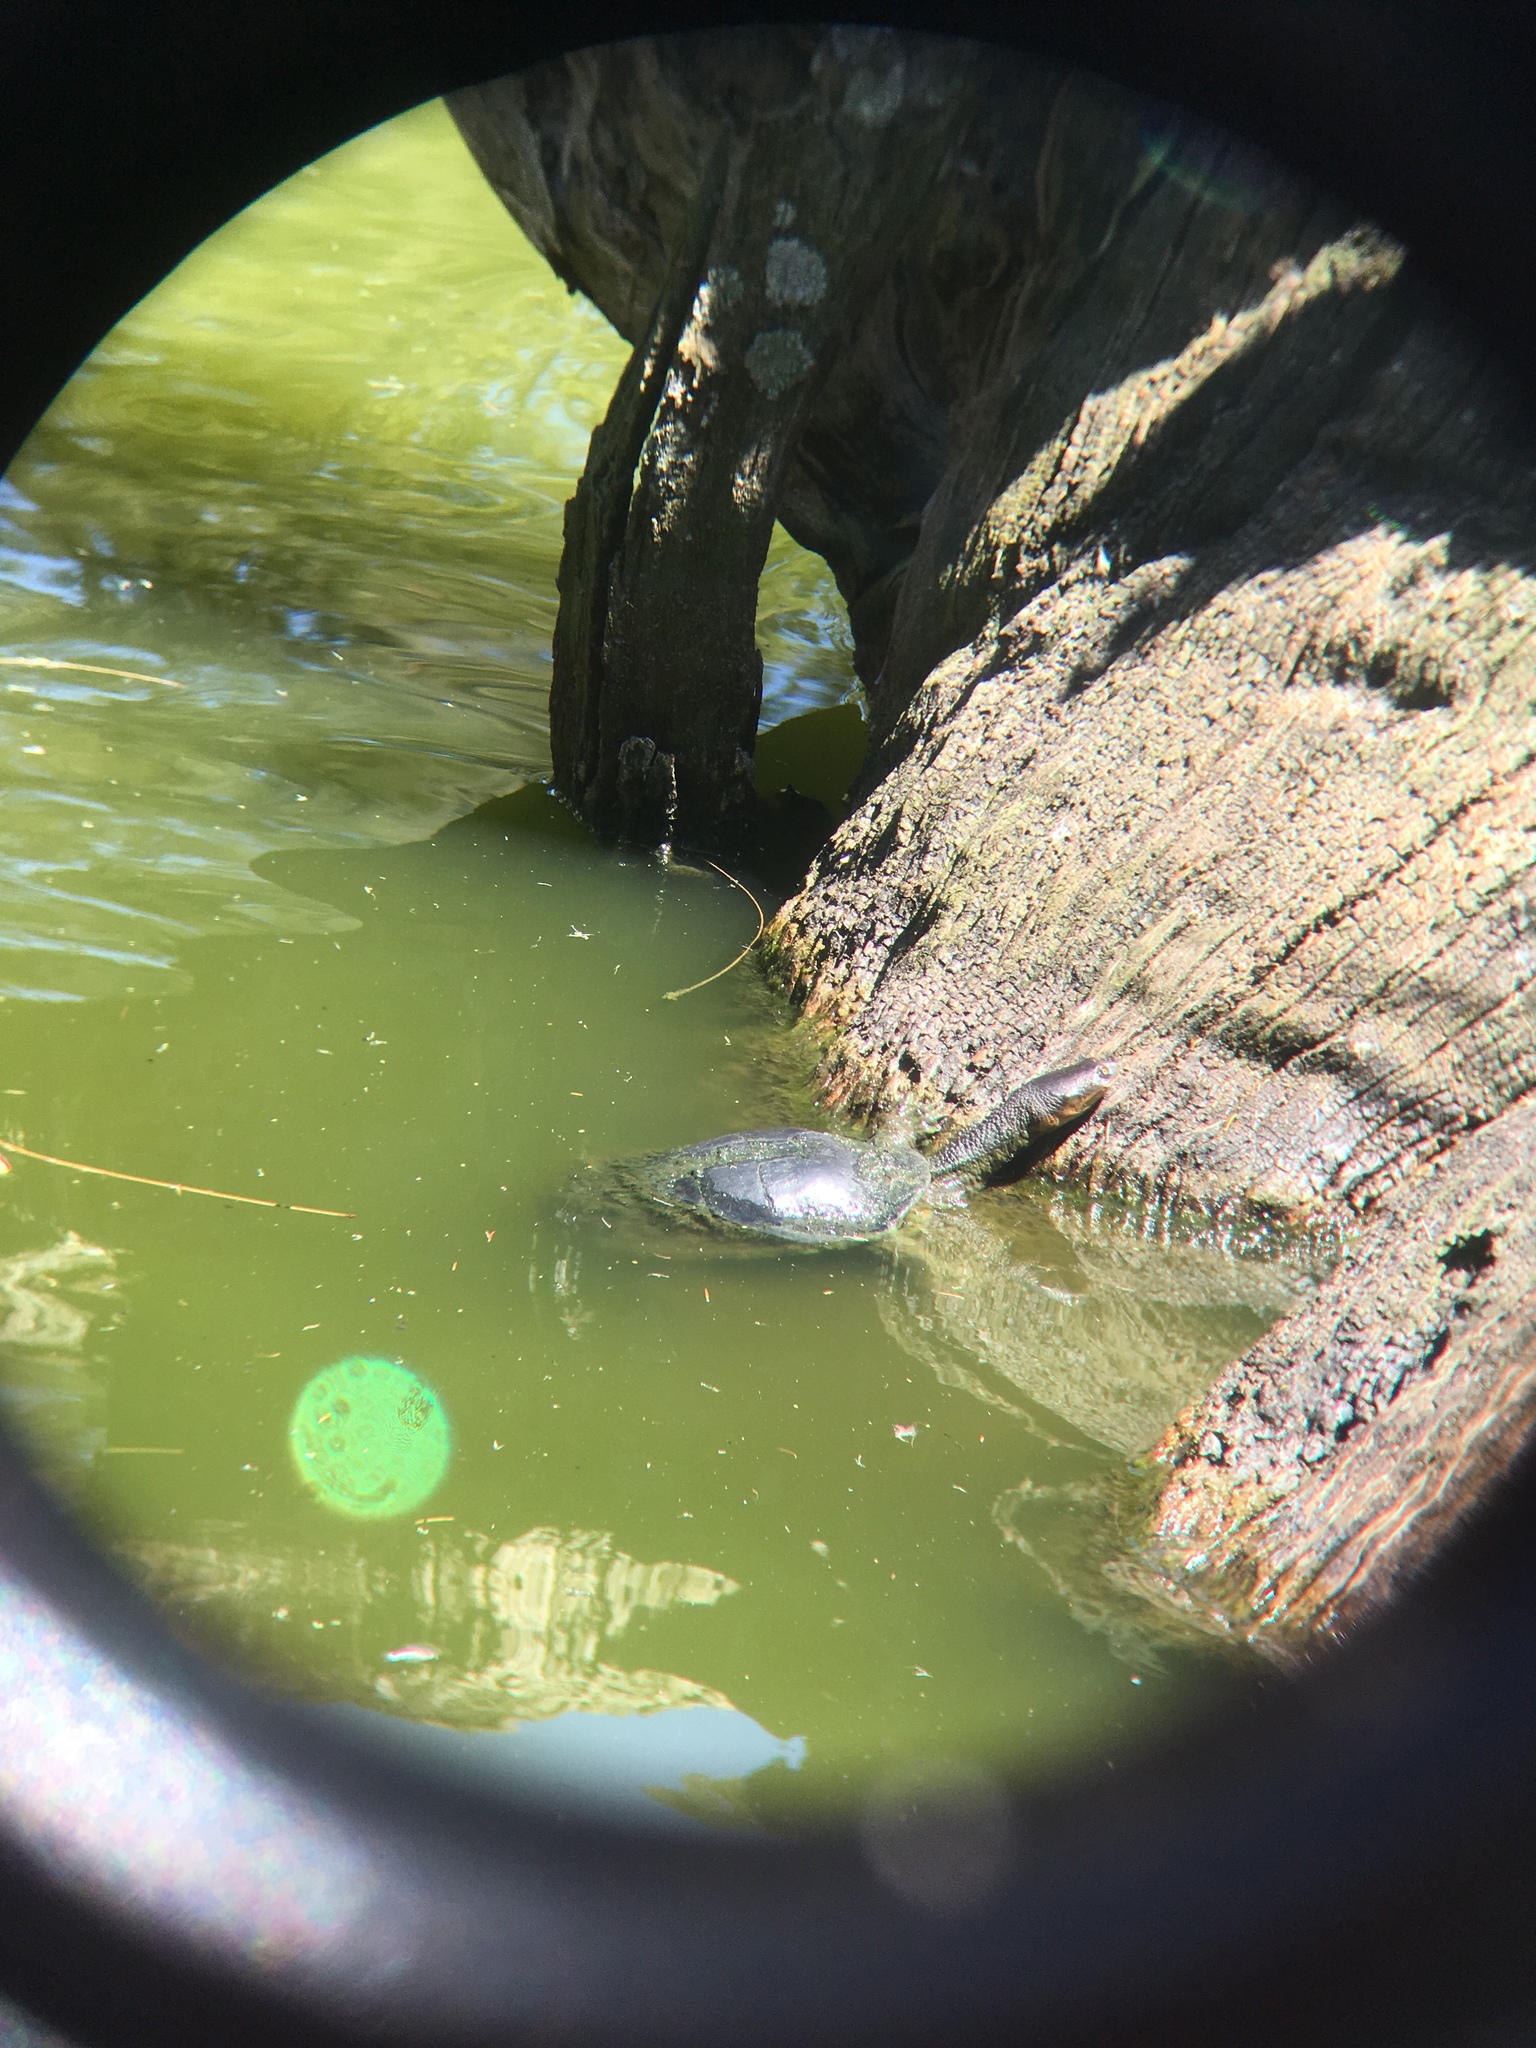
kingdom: Animalia
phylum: Chordata
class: Testudines
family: Chelidae
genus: Chelodina
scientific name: Chelodina longicollis
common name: Eastern snake-necked turtle
